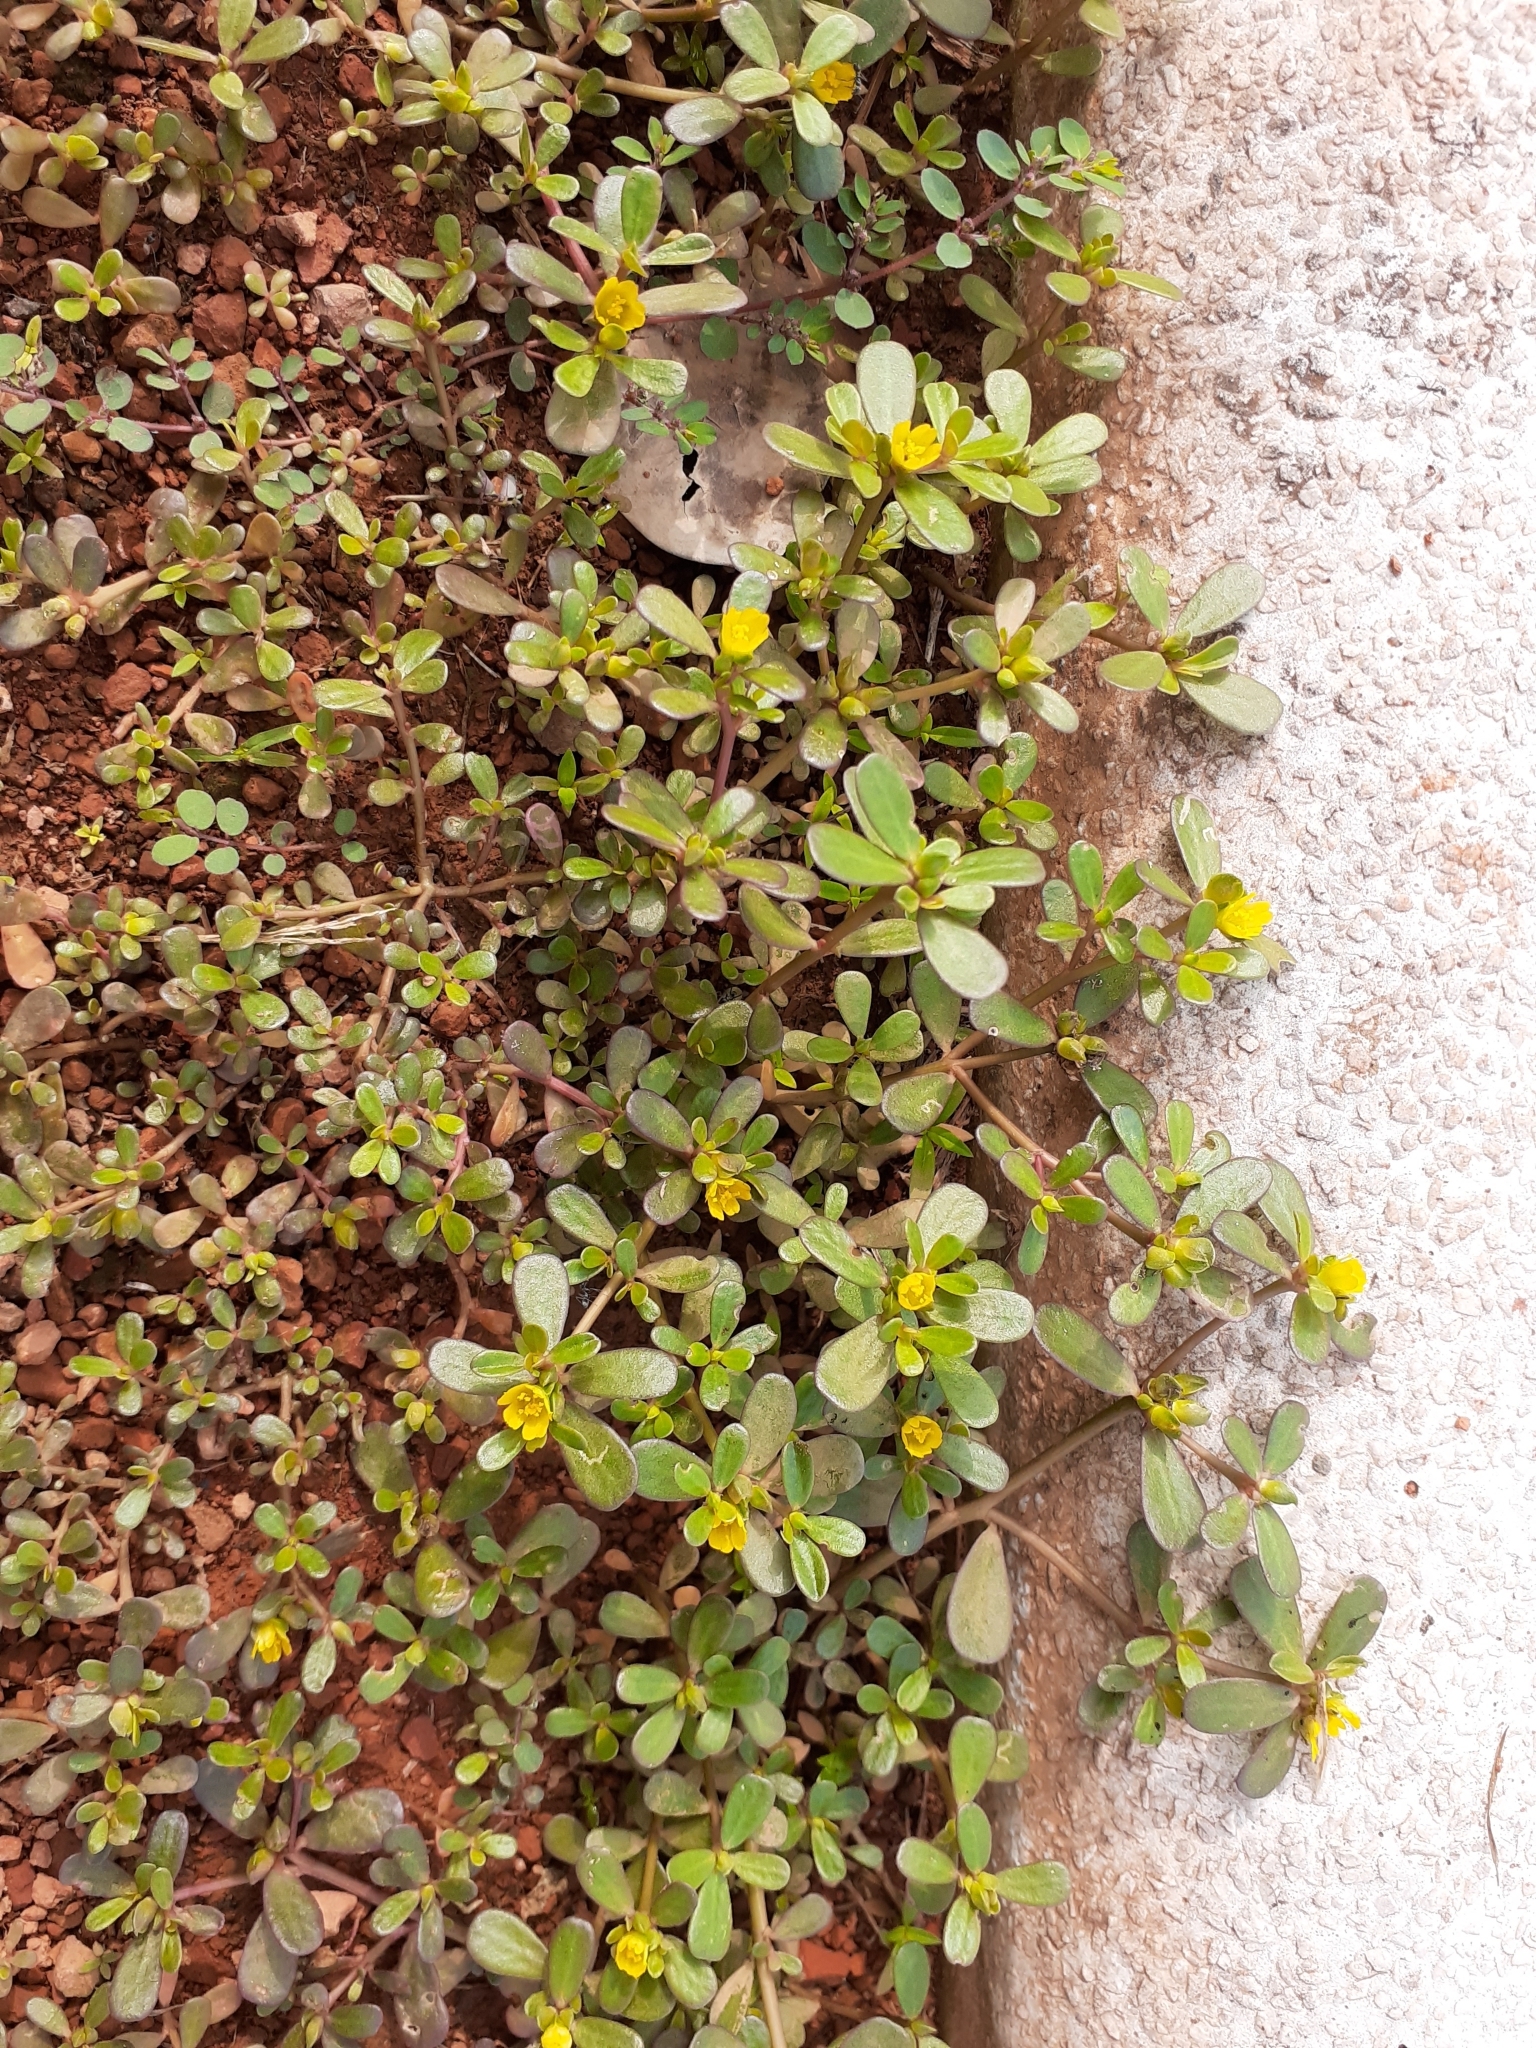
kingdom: Plantae
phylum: Tracheophyta
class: Magnoliopsida
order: Caryophyllales
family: Portulacaceae
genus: Portulaca
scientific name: Portulaca oleracea
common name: Common purslane
